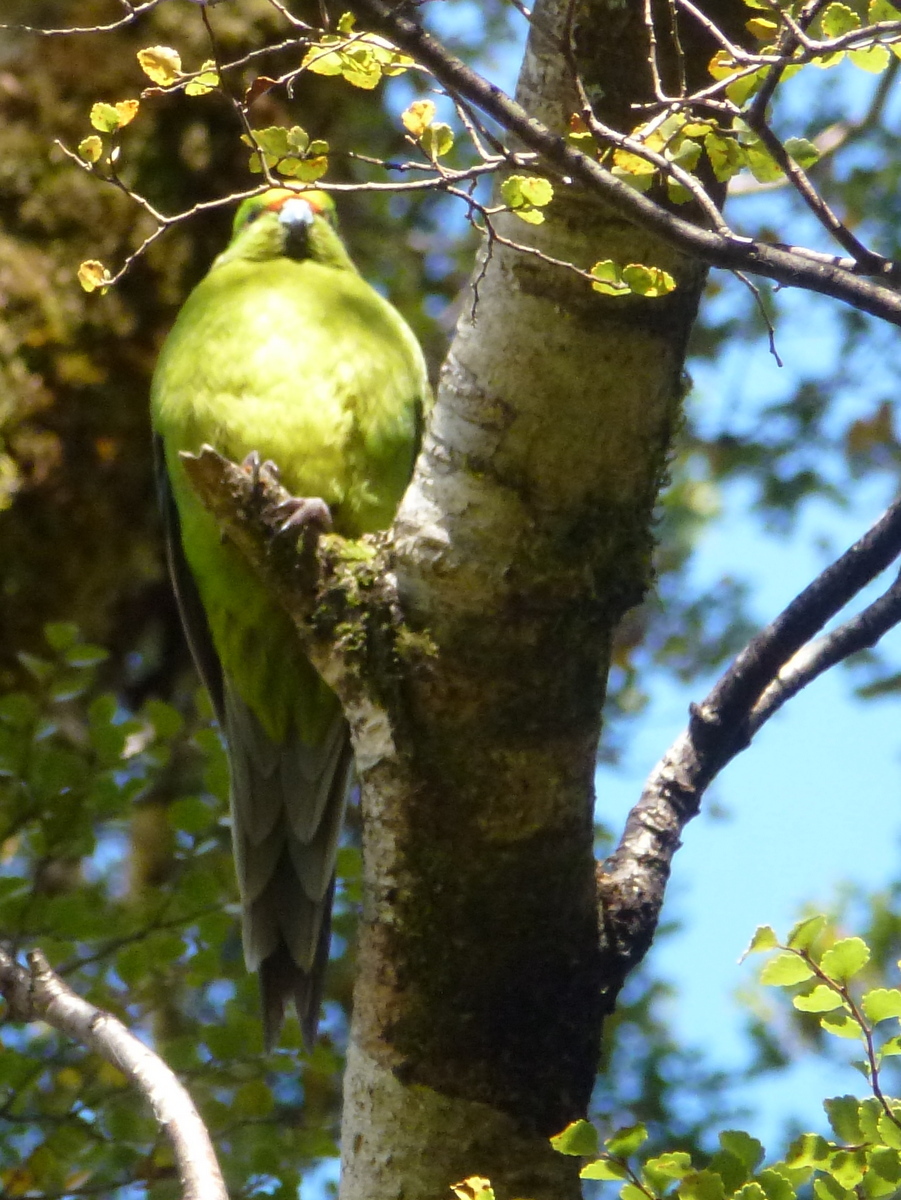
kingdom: Animalia
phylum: Chordata
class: Aves
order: Psittaciformes
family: Psittacidae
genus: Cyanoramphus
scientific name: Cyanoramphus auriceps
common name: Yellow-crowned parakeet
